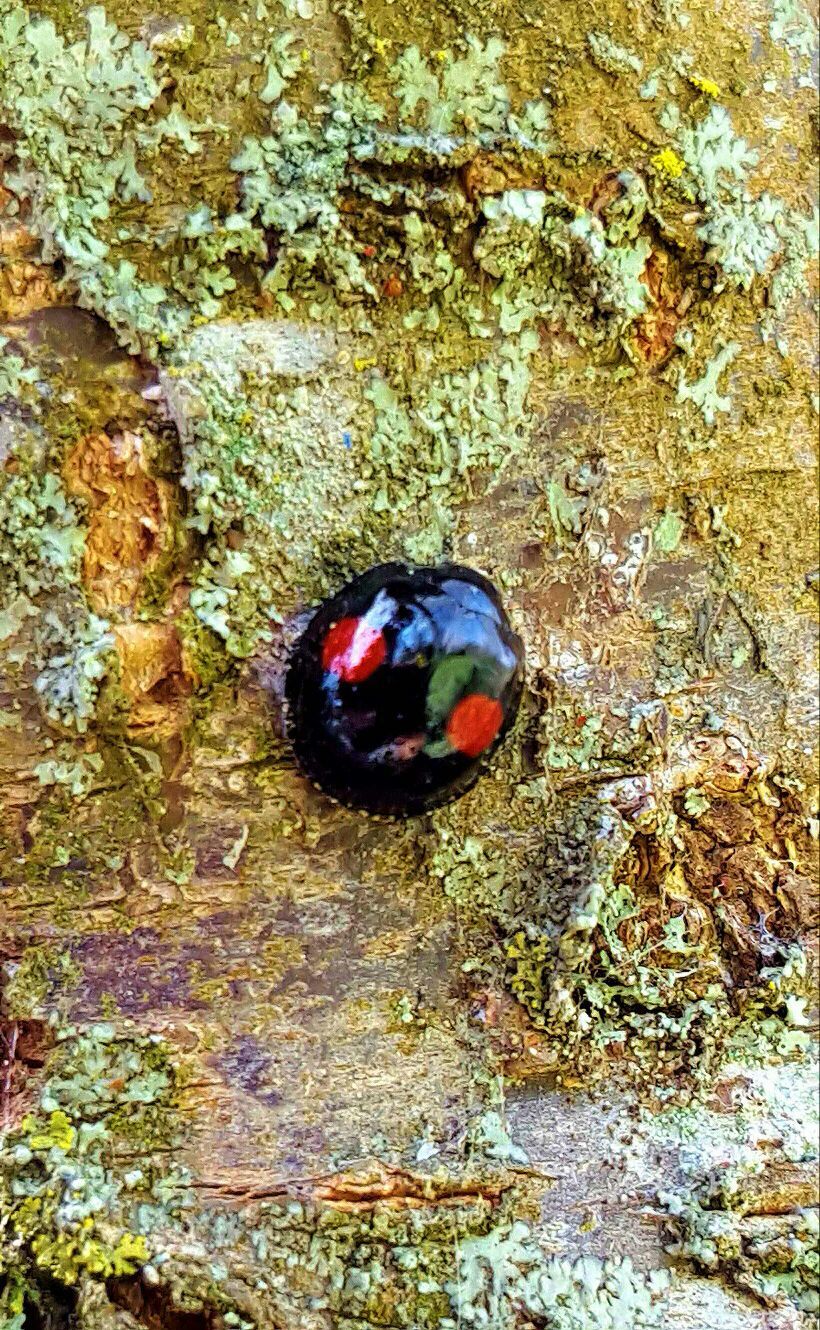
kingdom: Animalia
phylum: Arthropoda
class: Insecta
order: Coleoptera
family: Coccinellidae
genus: Chilocorus
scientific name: Chilocorus renipustulatus
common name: Kidney-spot ladybird
